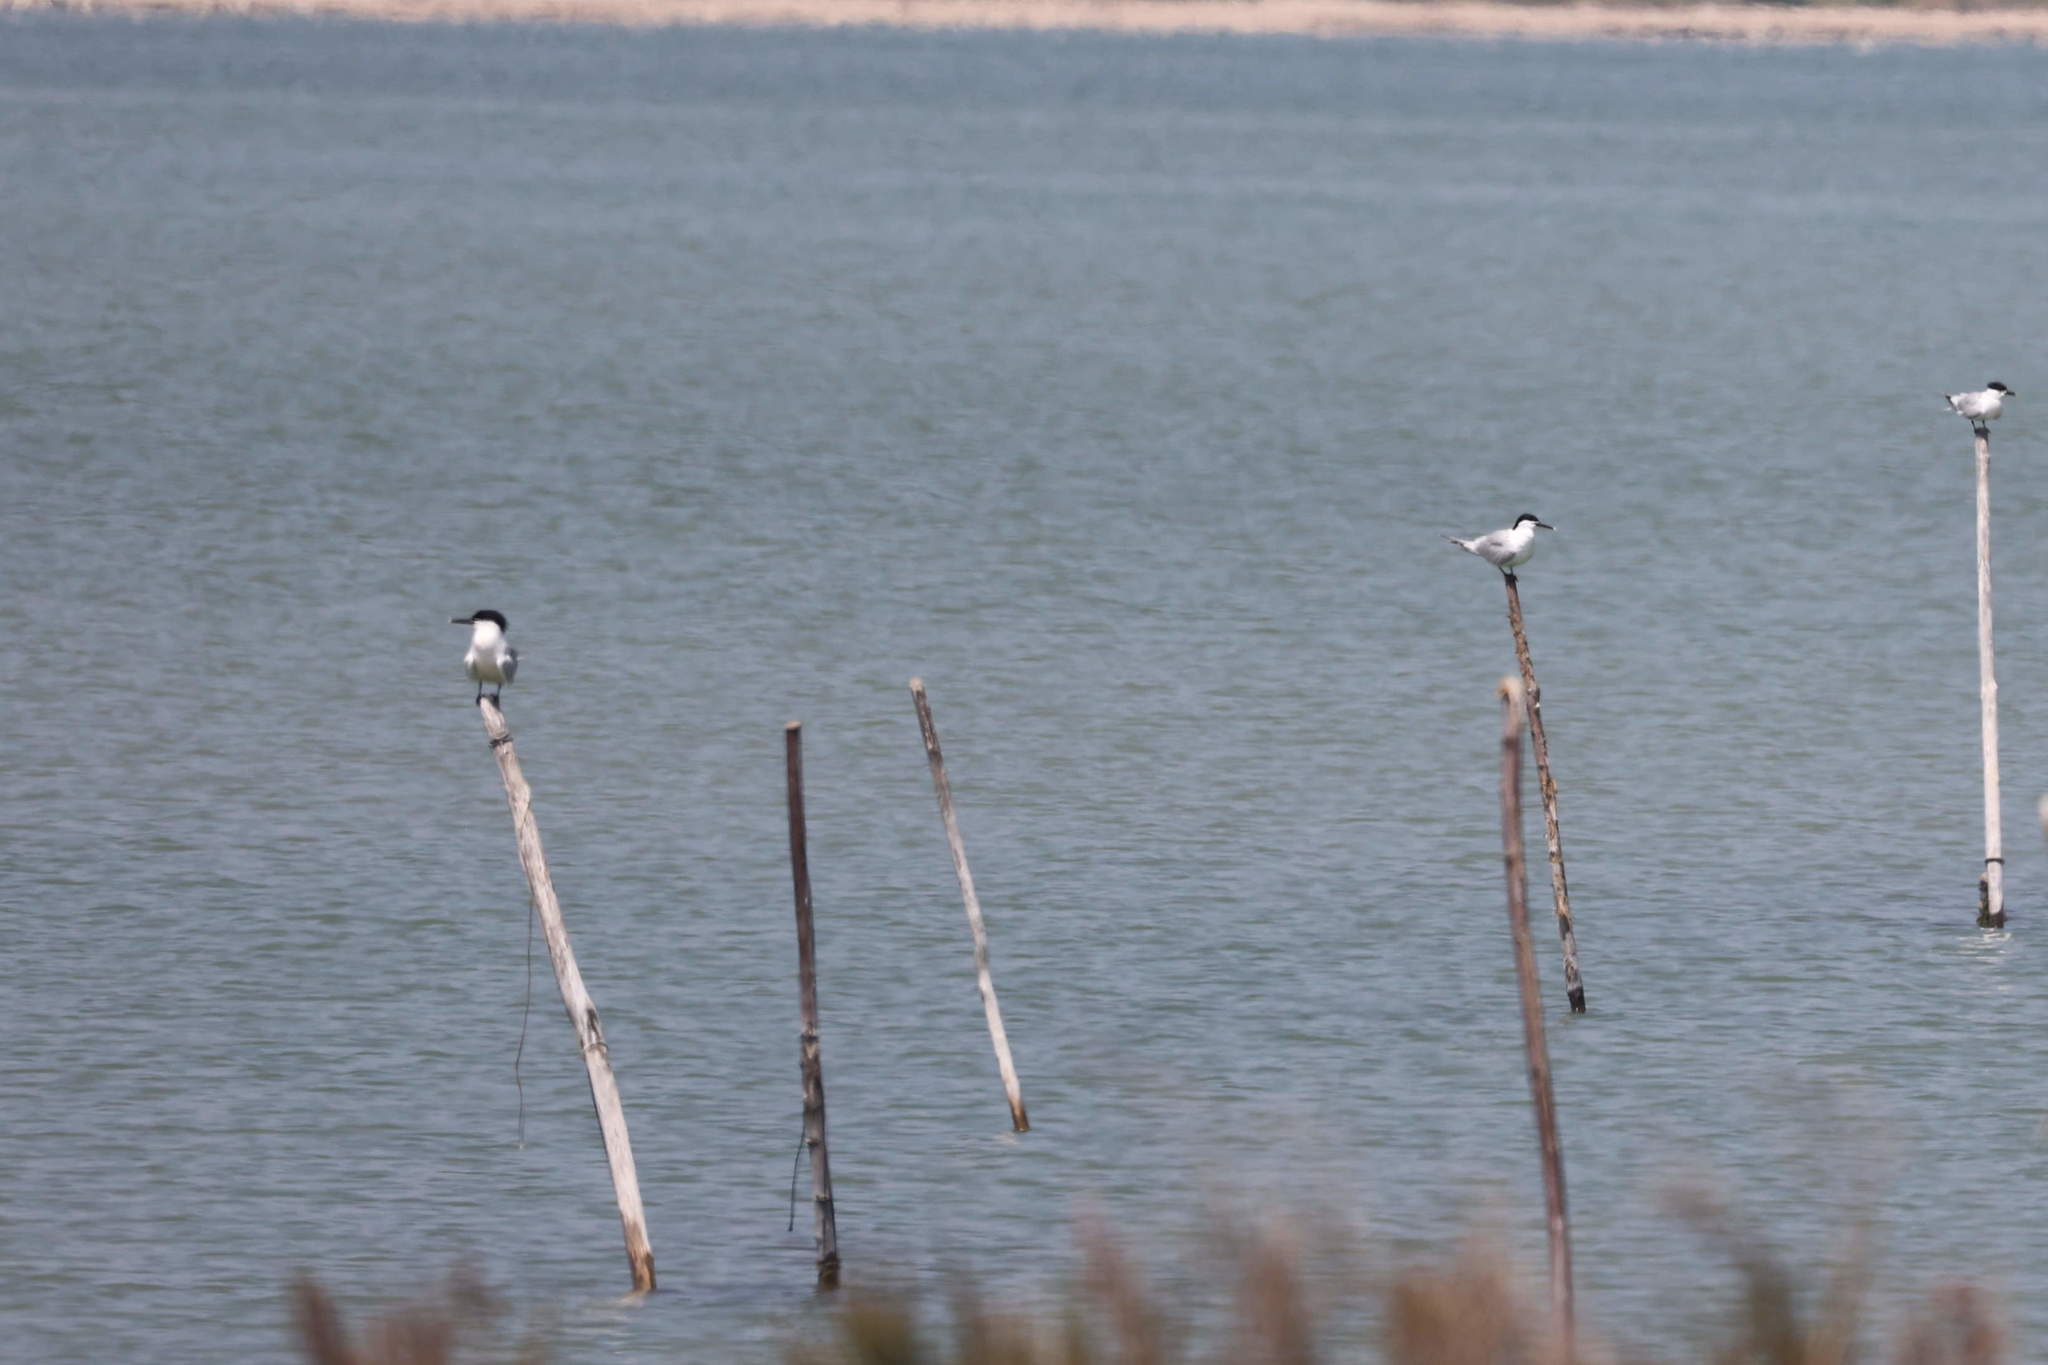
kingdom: Animalia
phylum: Chordata
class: Aves
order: Charadriiformes
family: Laridae
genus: Thalasseus
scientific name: Thalasseus sandvicensis
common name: Sandwich tern
